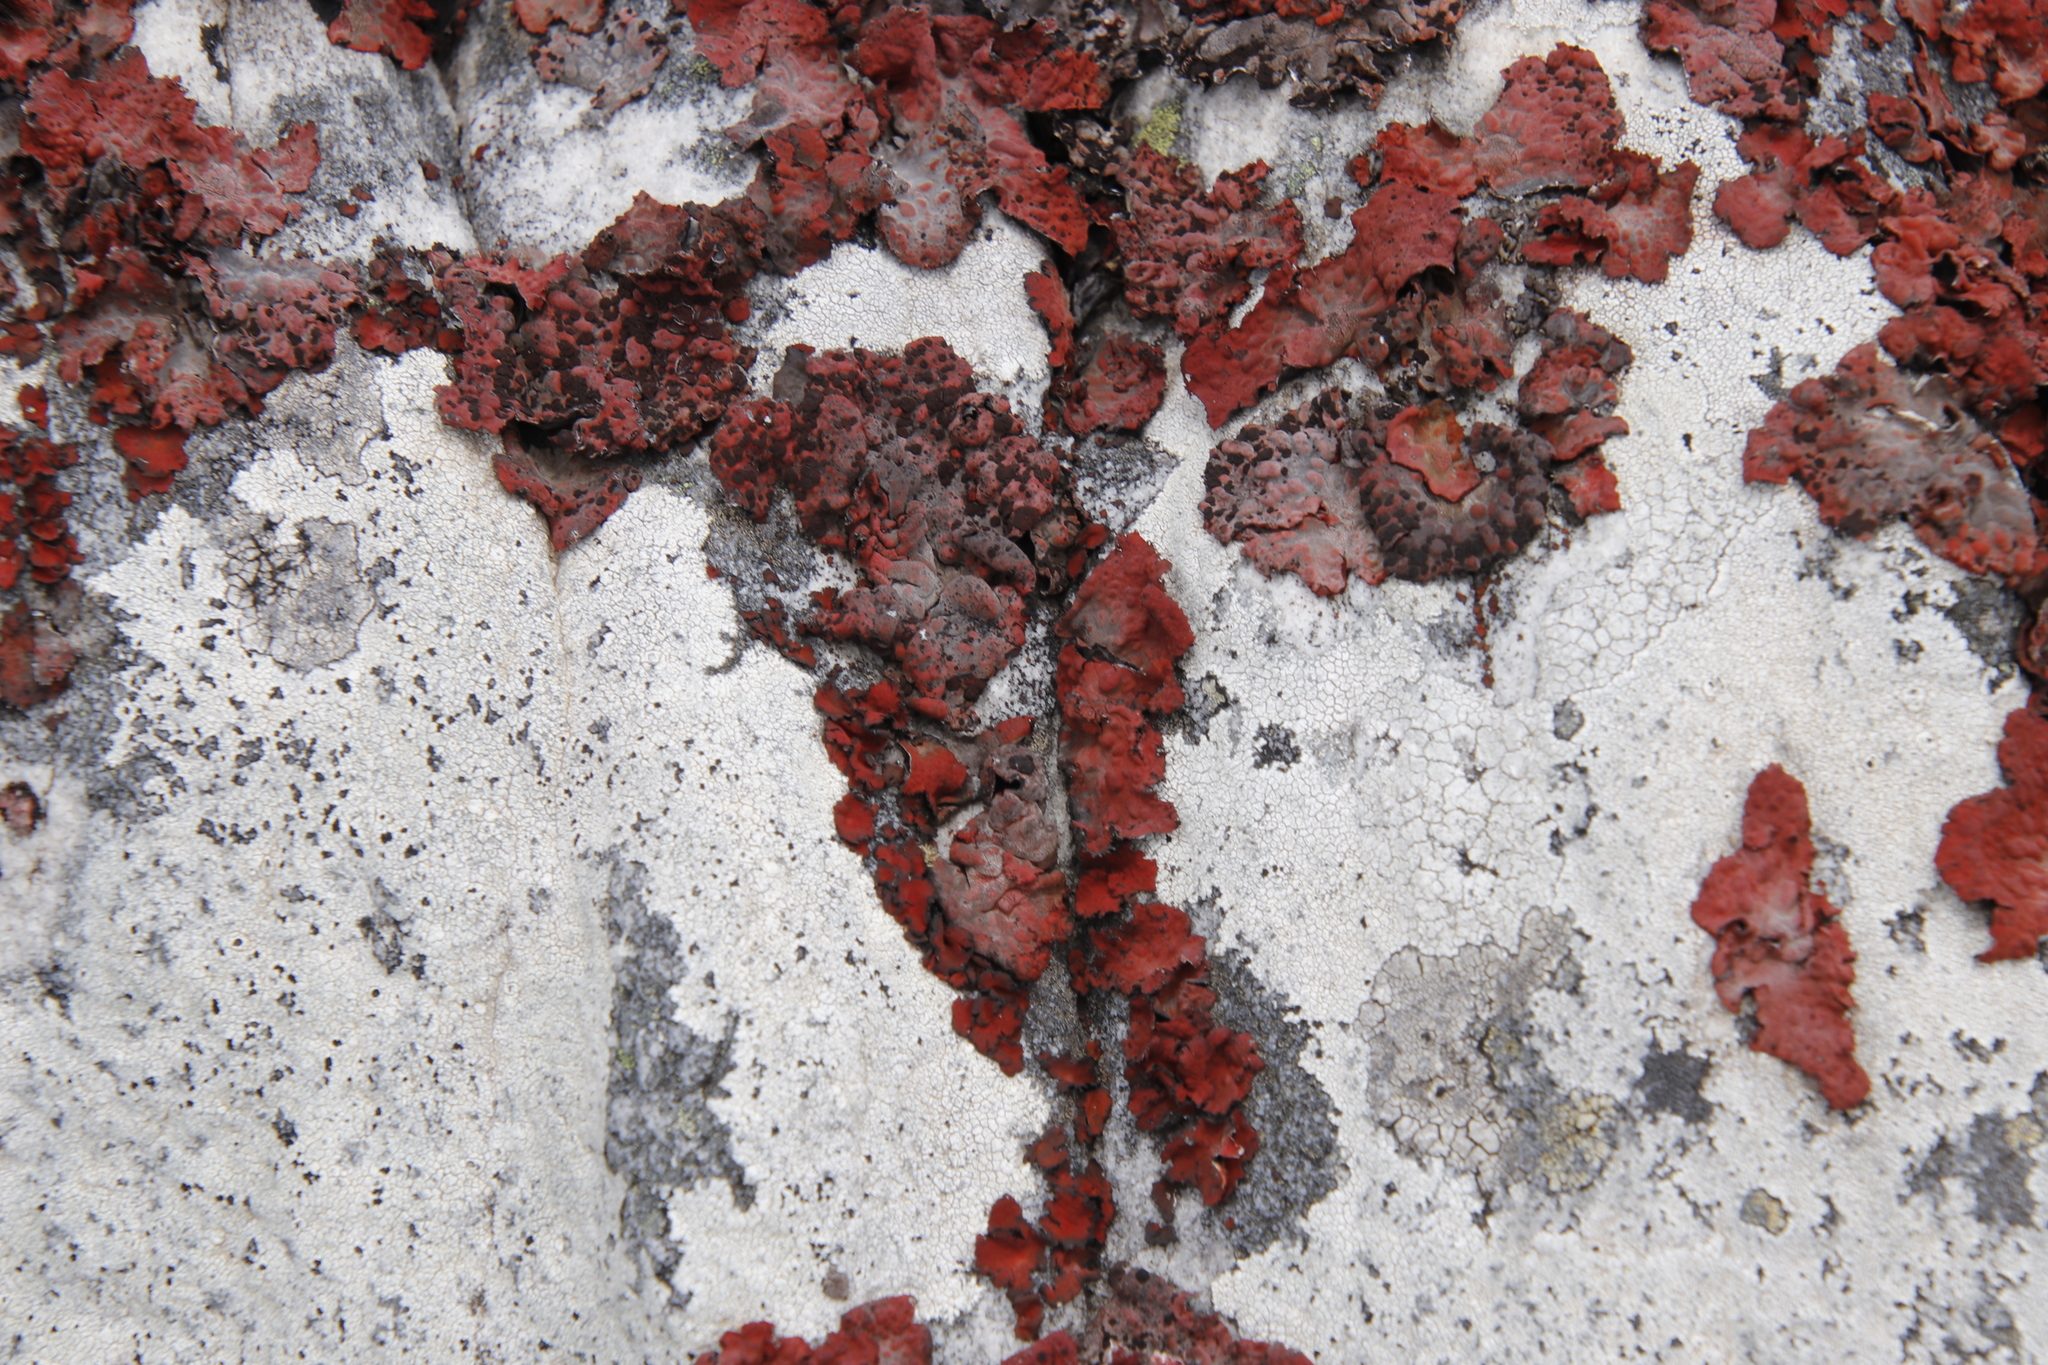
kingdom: Fungi
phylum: Ascomycota
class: Lecanoromycetes
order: Umbilicariales
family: Umbilicariaceae
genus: Lasallia
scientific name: Lasallia rubiginosa
